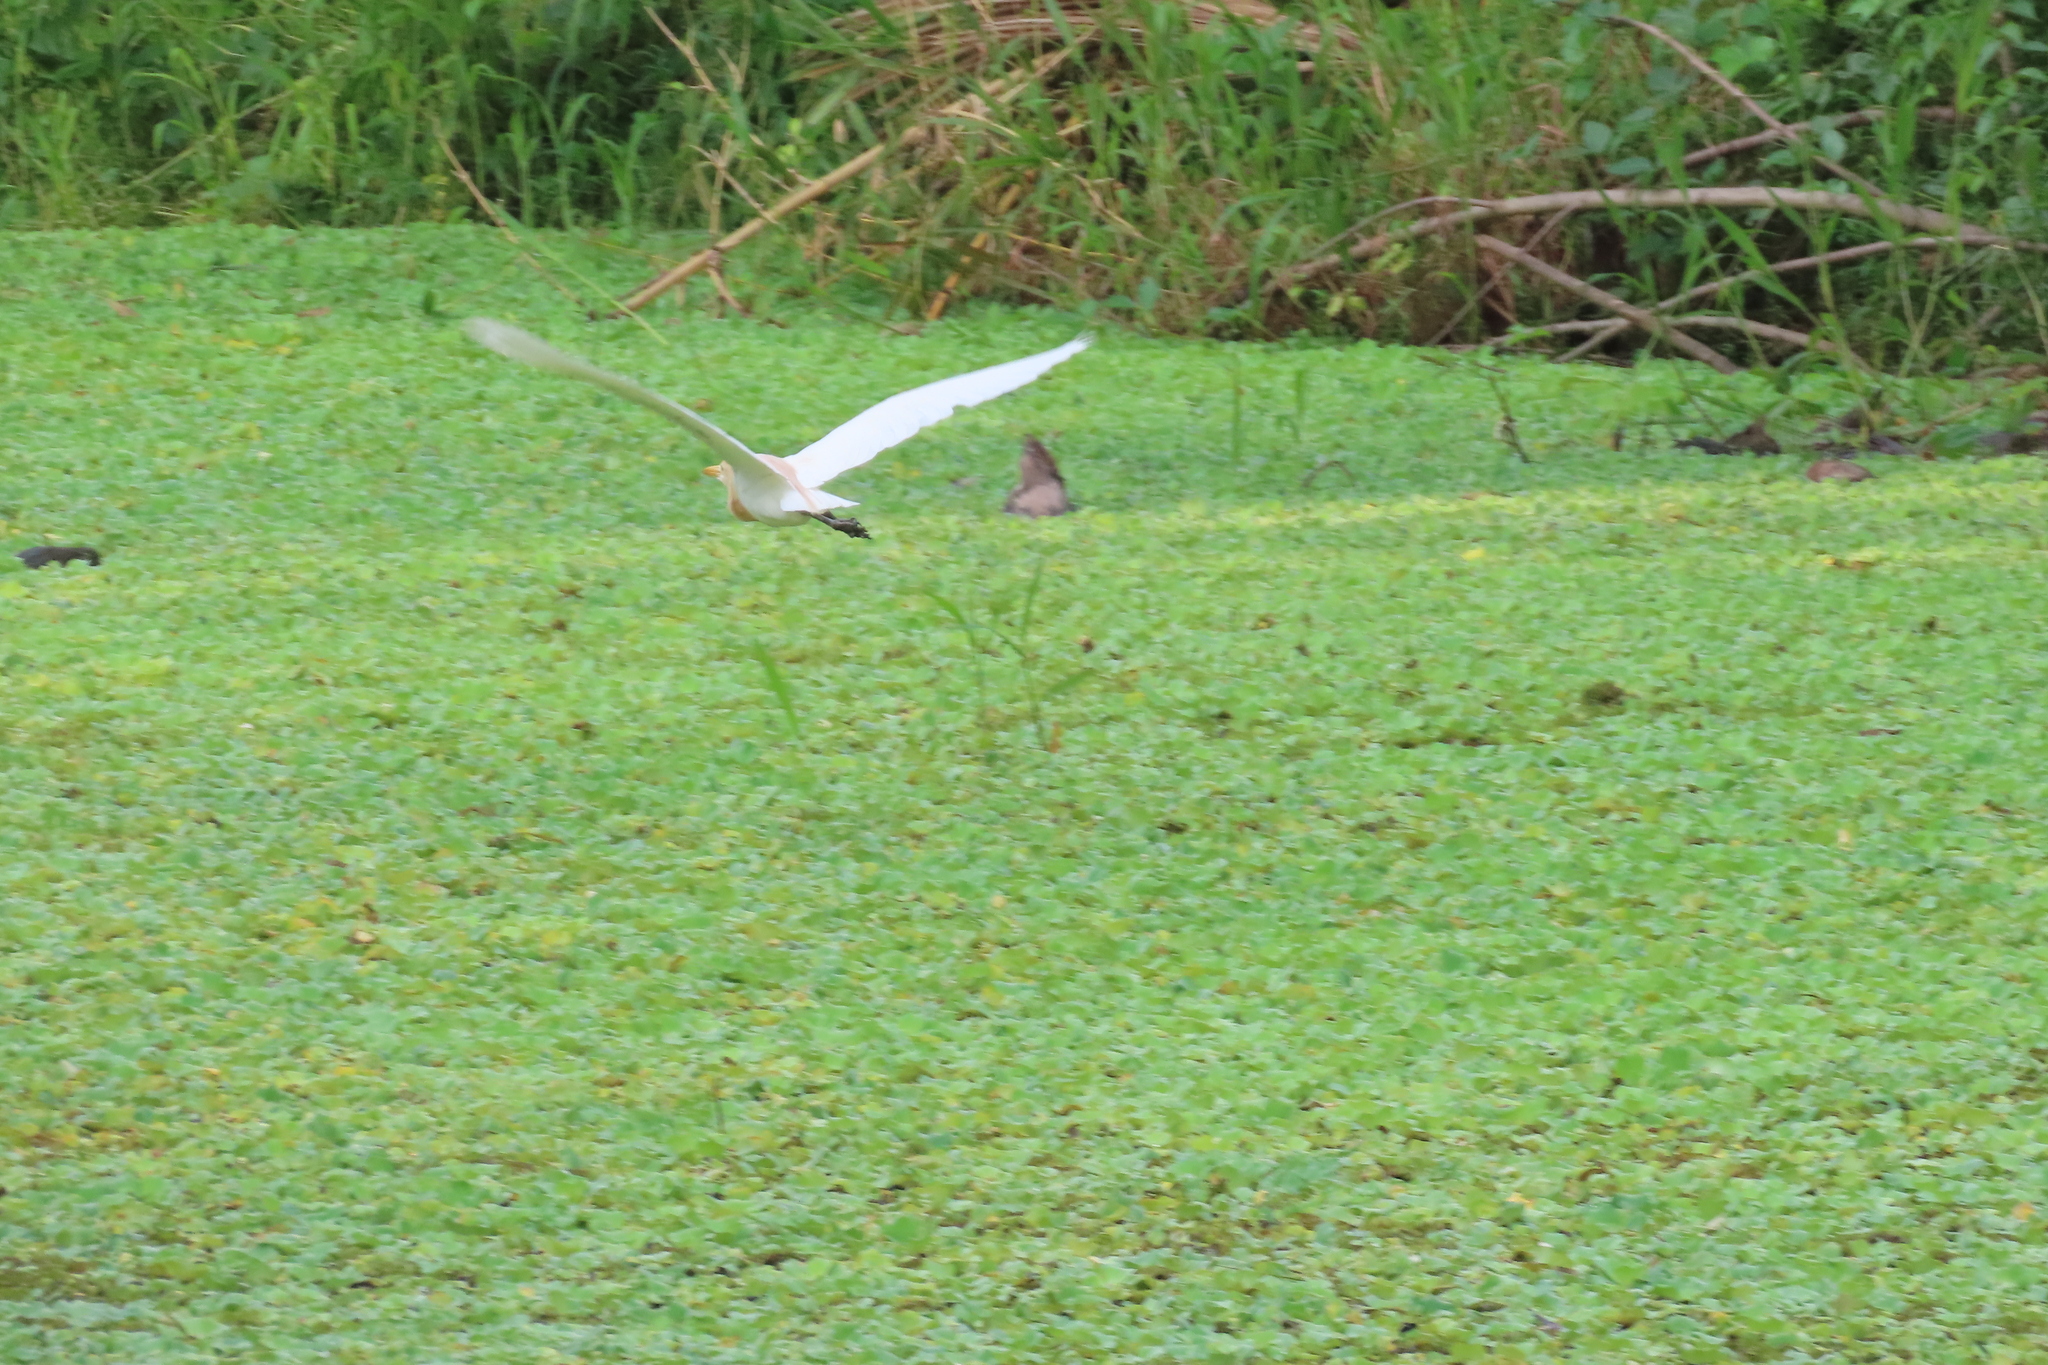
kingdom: Animalia
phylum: Chordata
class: Aves
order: Pelecaniformes
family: Ardeidae
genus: Bubulcus
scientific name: Bubulcus coromandus
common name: Eastern cattle egret
